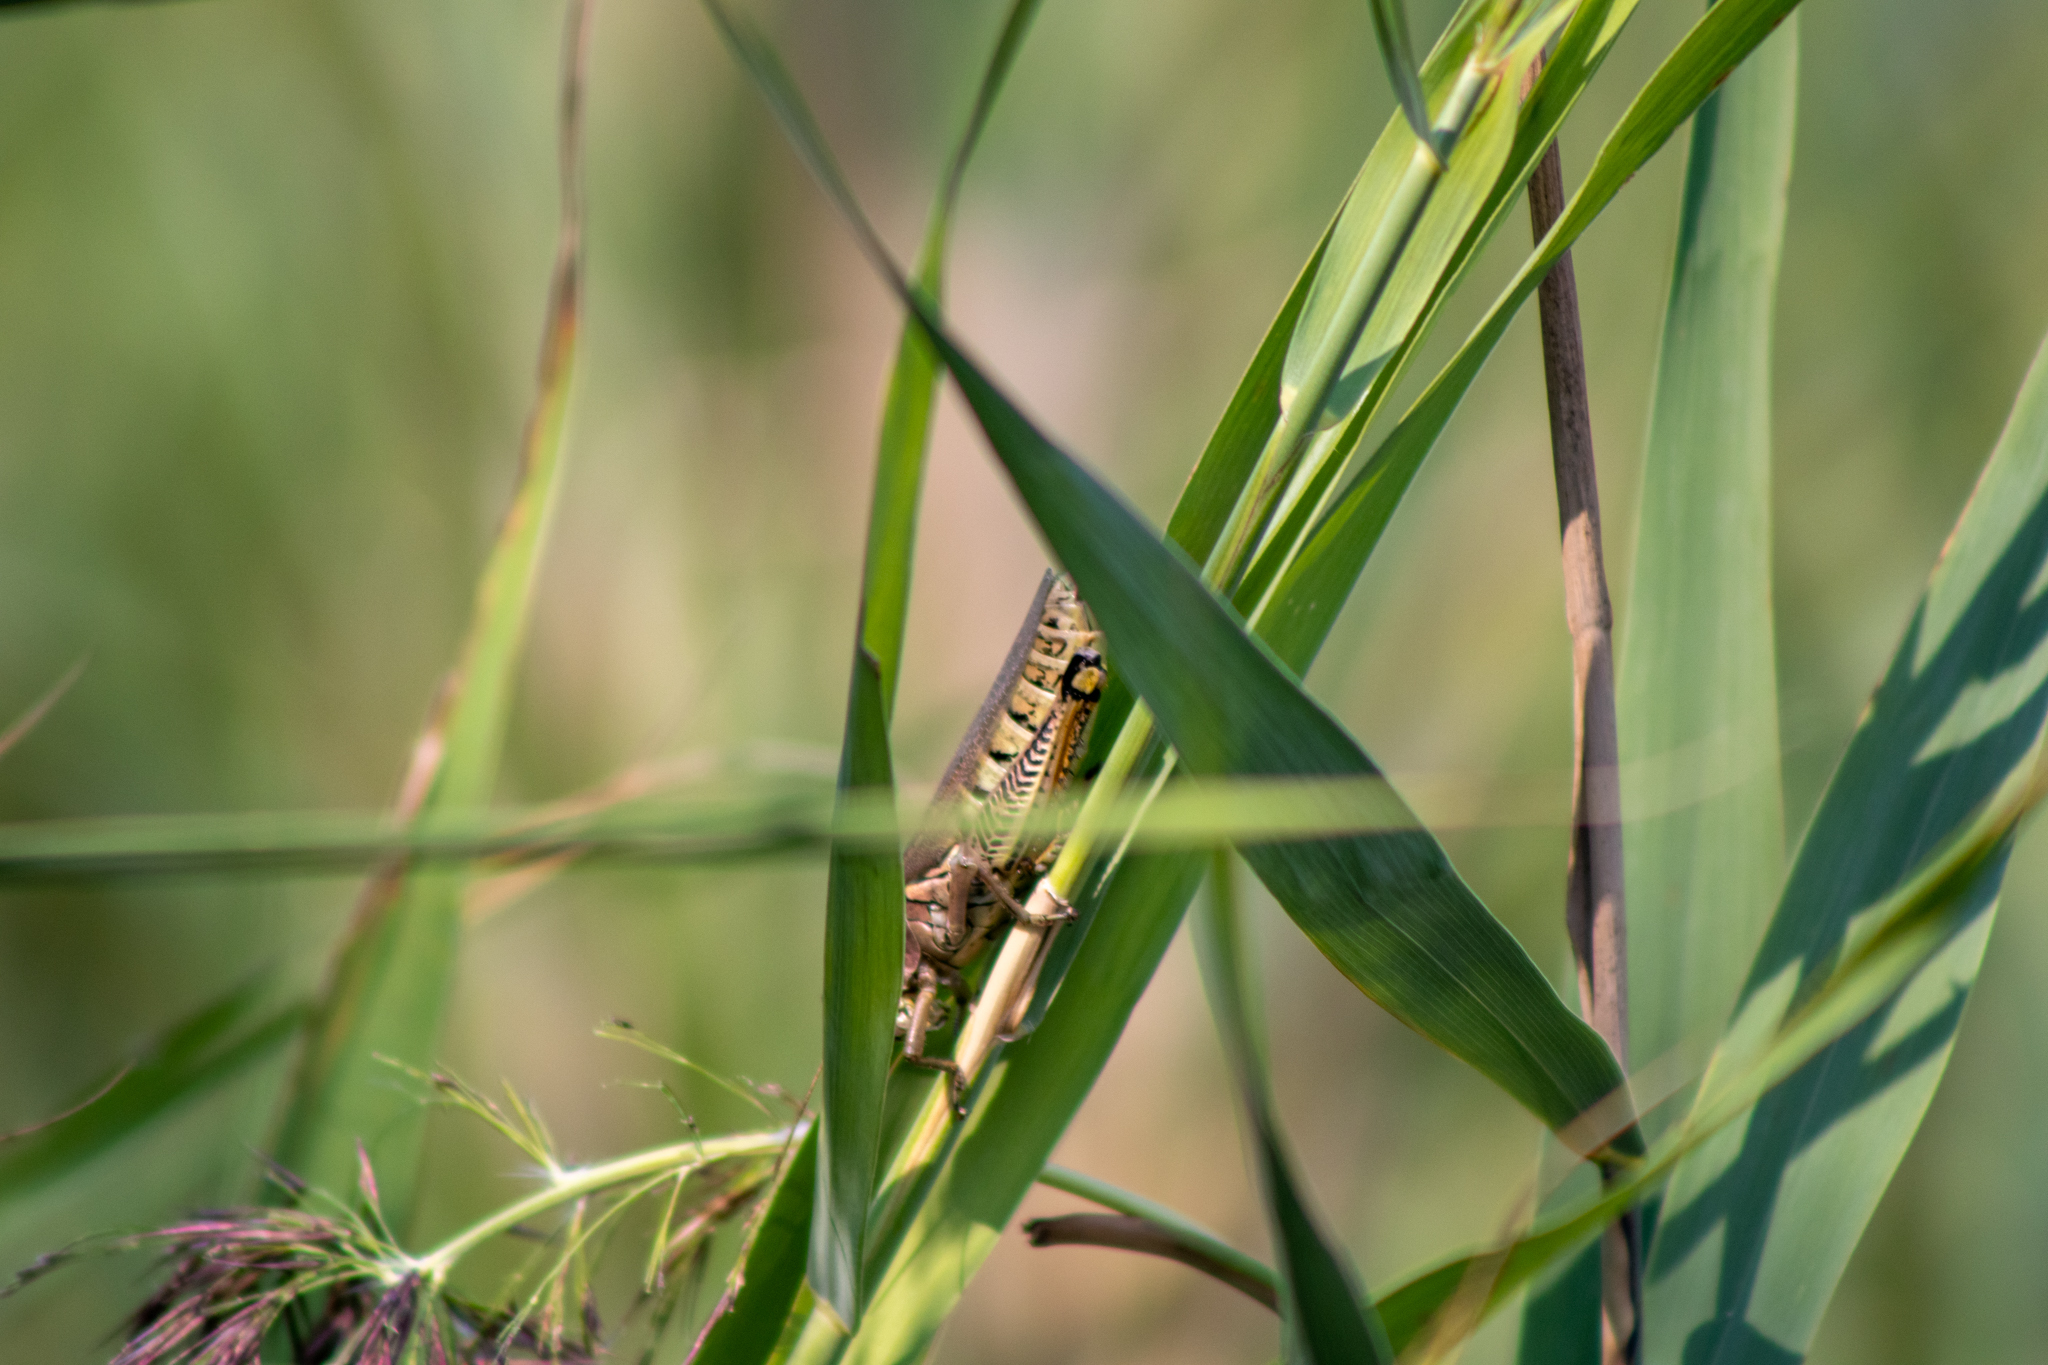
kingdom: Animalia
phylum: Arthropoda
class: Insecta
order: Orthoptera
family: Acrididae
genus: Melanoplus
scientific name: Melanoplus differentialis
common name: Differential grasshopper
